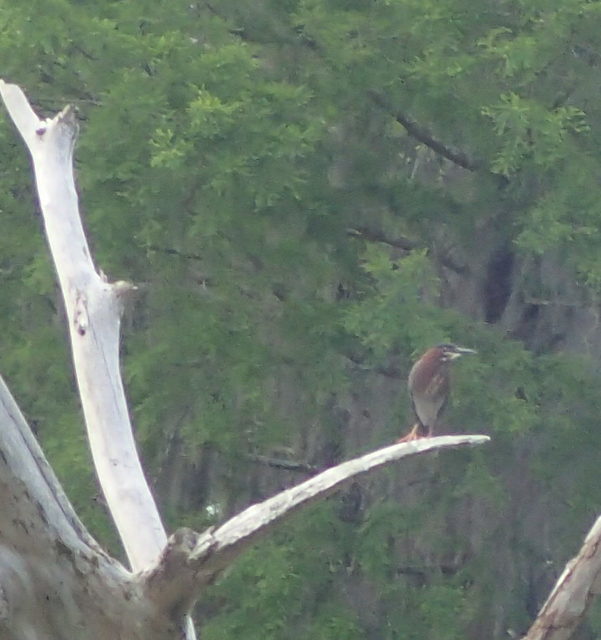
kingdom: Animalia
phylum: Chordata
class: Aves
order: Pelecaniformes
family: Ardeidae
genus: Butorides
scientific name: Butorides virescens
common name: Green heron
